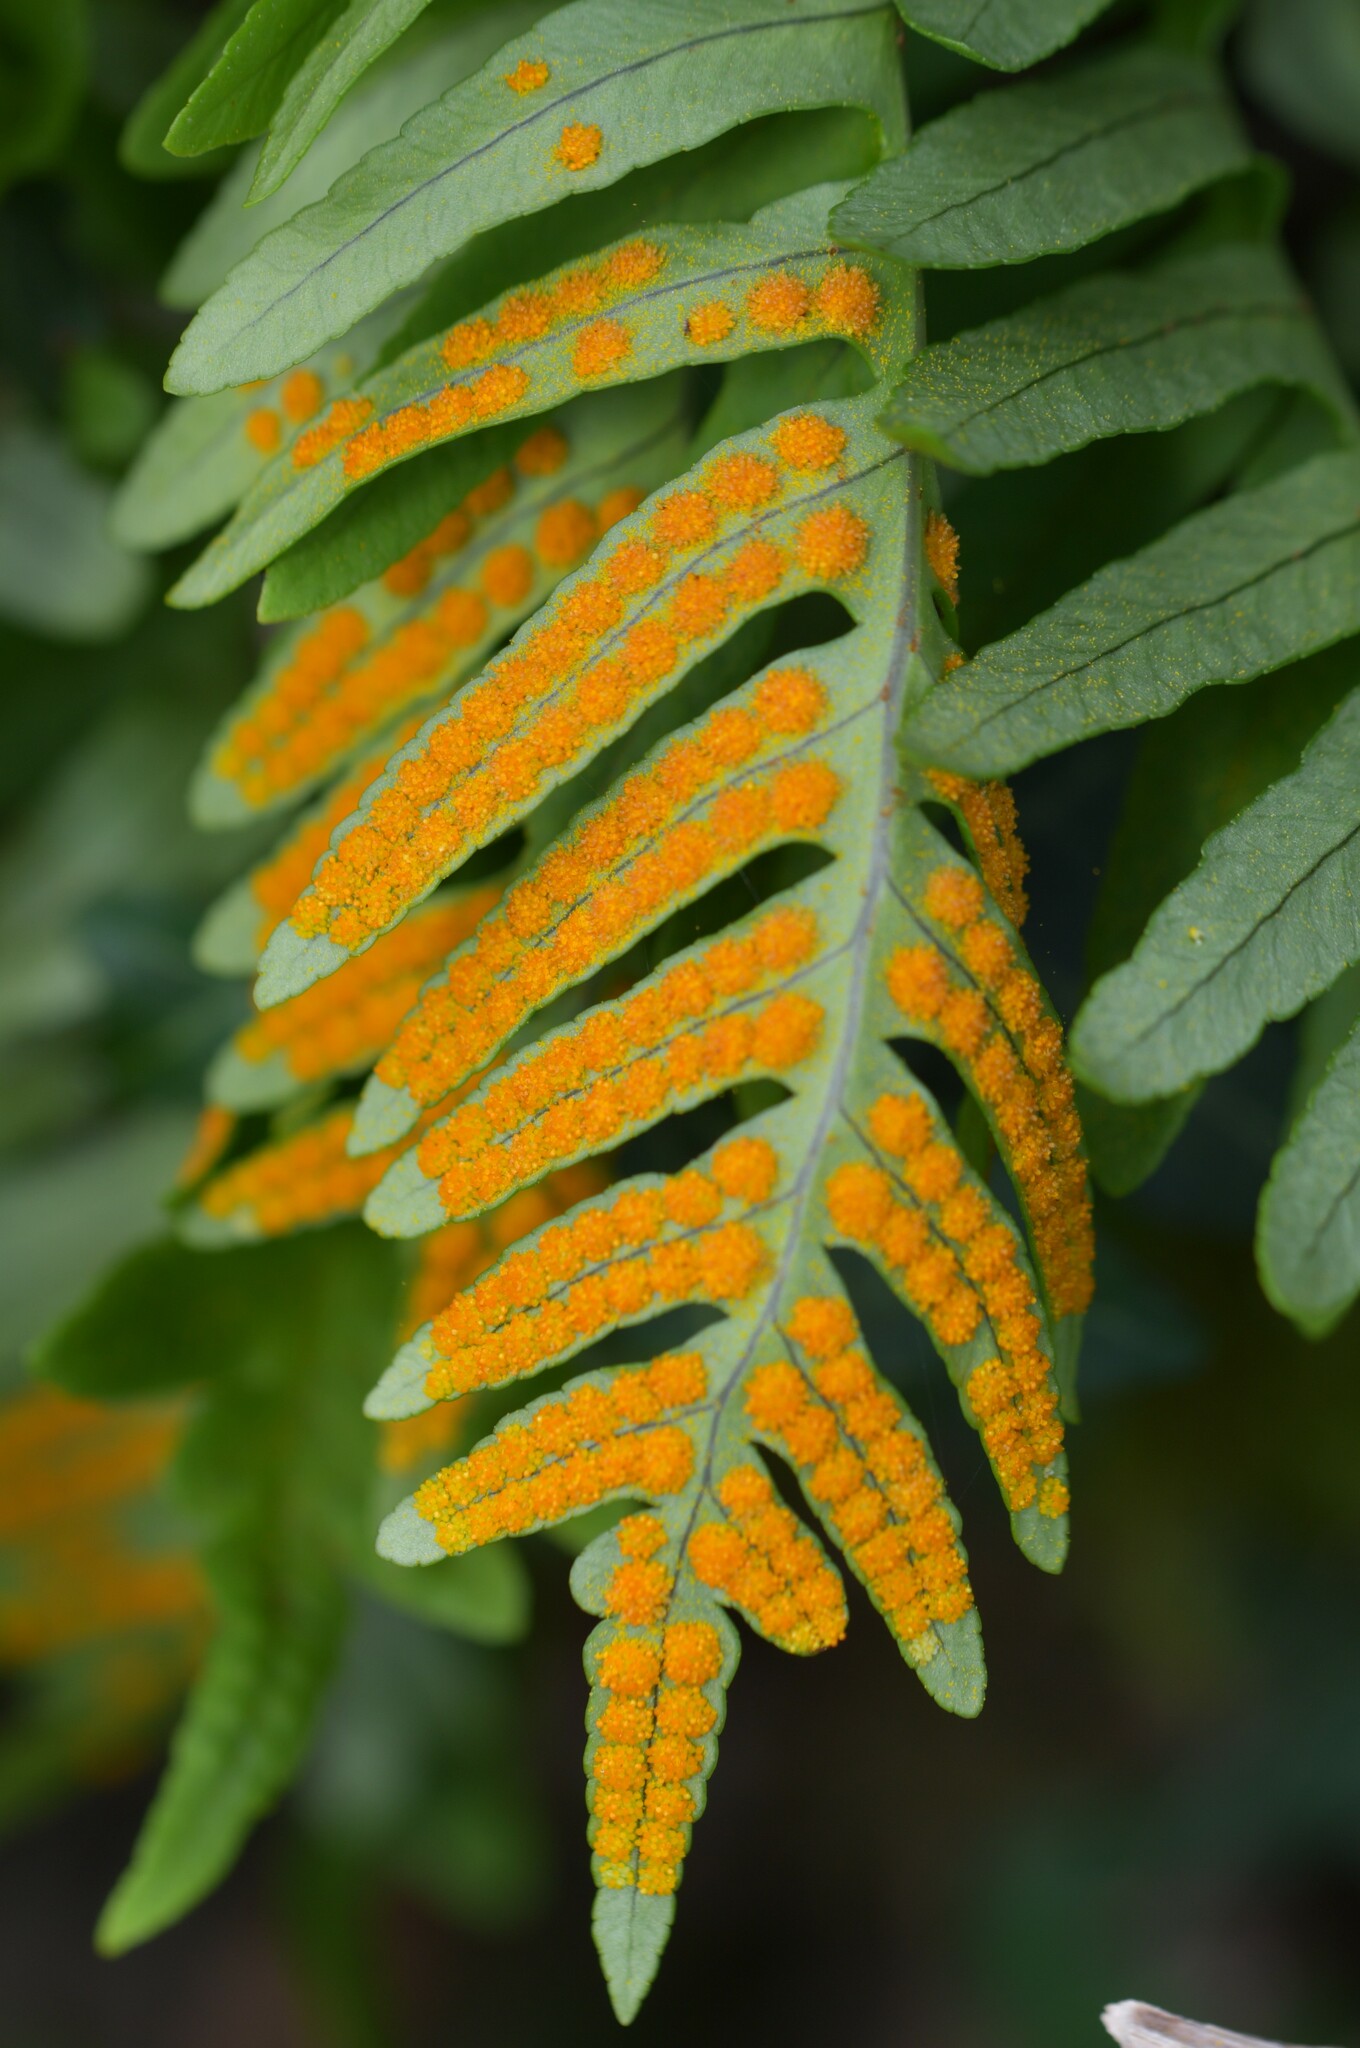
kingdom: Plantae
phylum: Tracheophyta
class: Polypodiopsida
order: Polypodiales
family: Polypodiaceae
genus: Polypodium
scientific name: Polypodium cambricum
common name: Southern polypody
